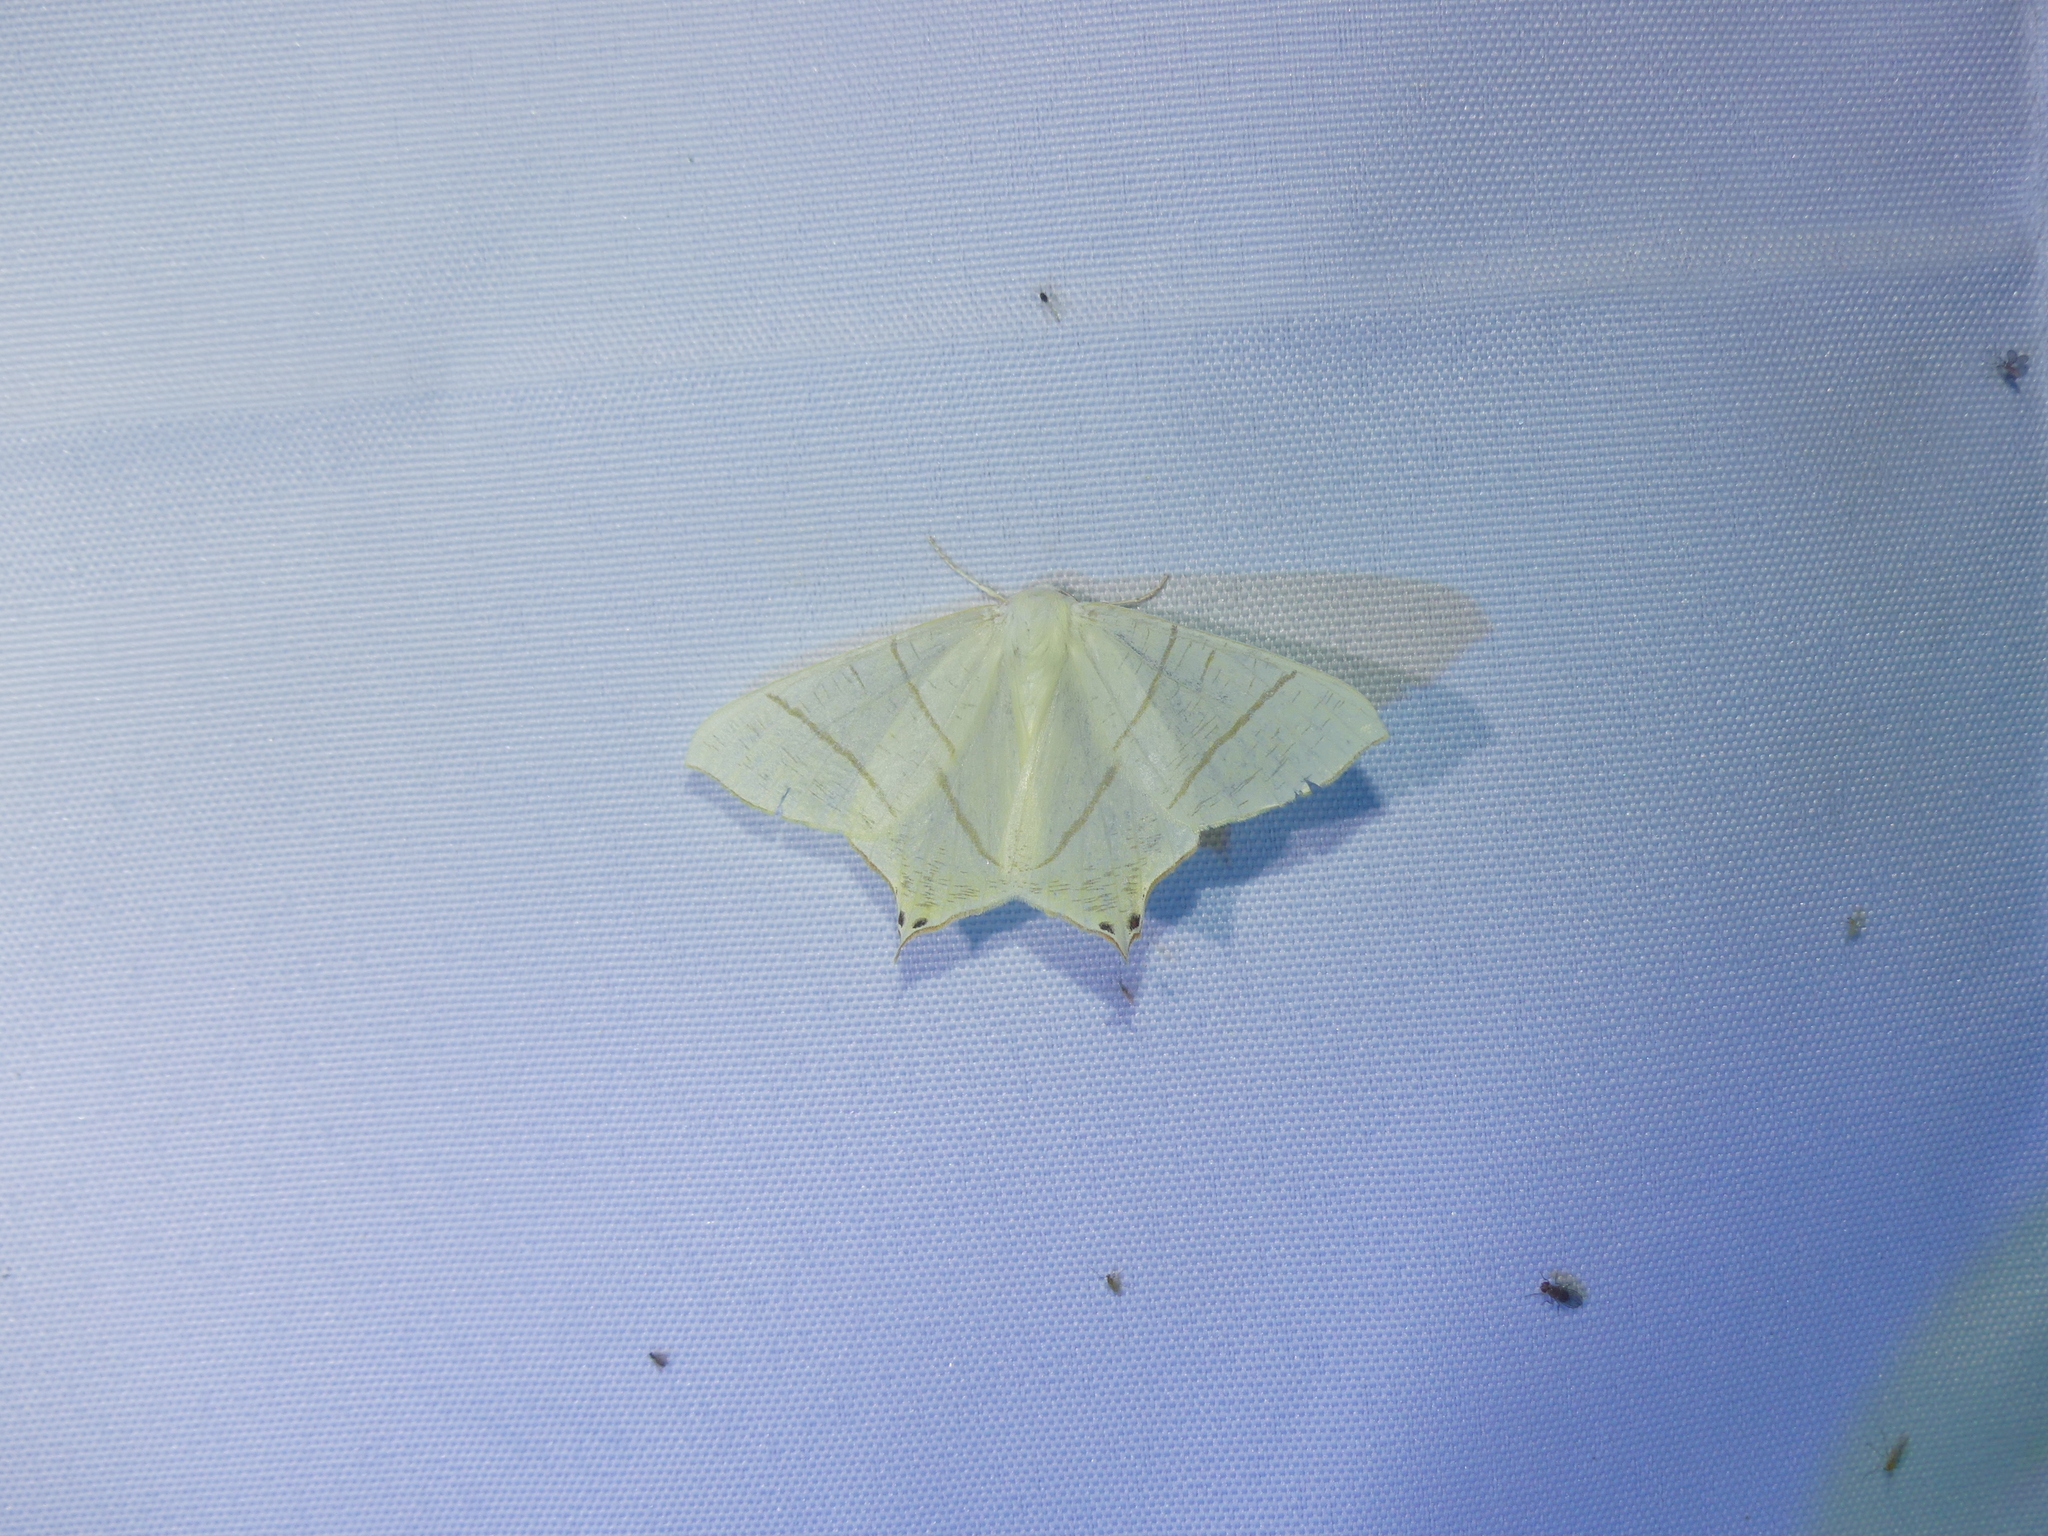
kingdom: Animalia
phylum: Arthropoda
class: Insecta
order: Lepidoptera
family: Geometridae
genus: Ourapteryx
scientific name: Ourapteryx sambucaria
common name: Swallow-tailed moth
